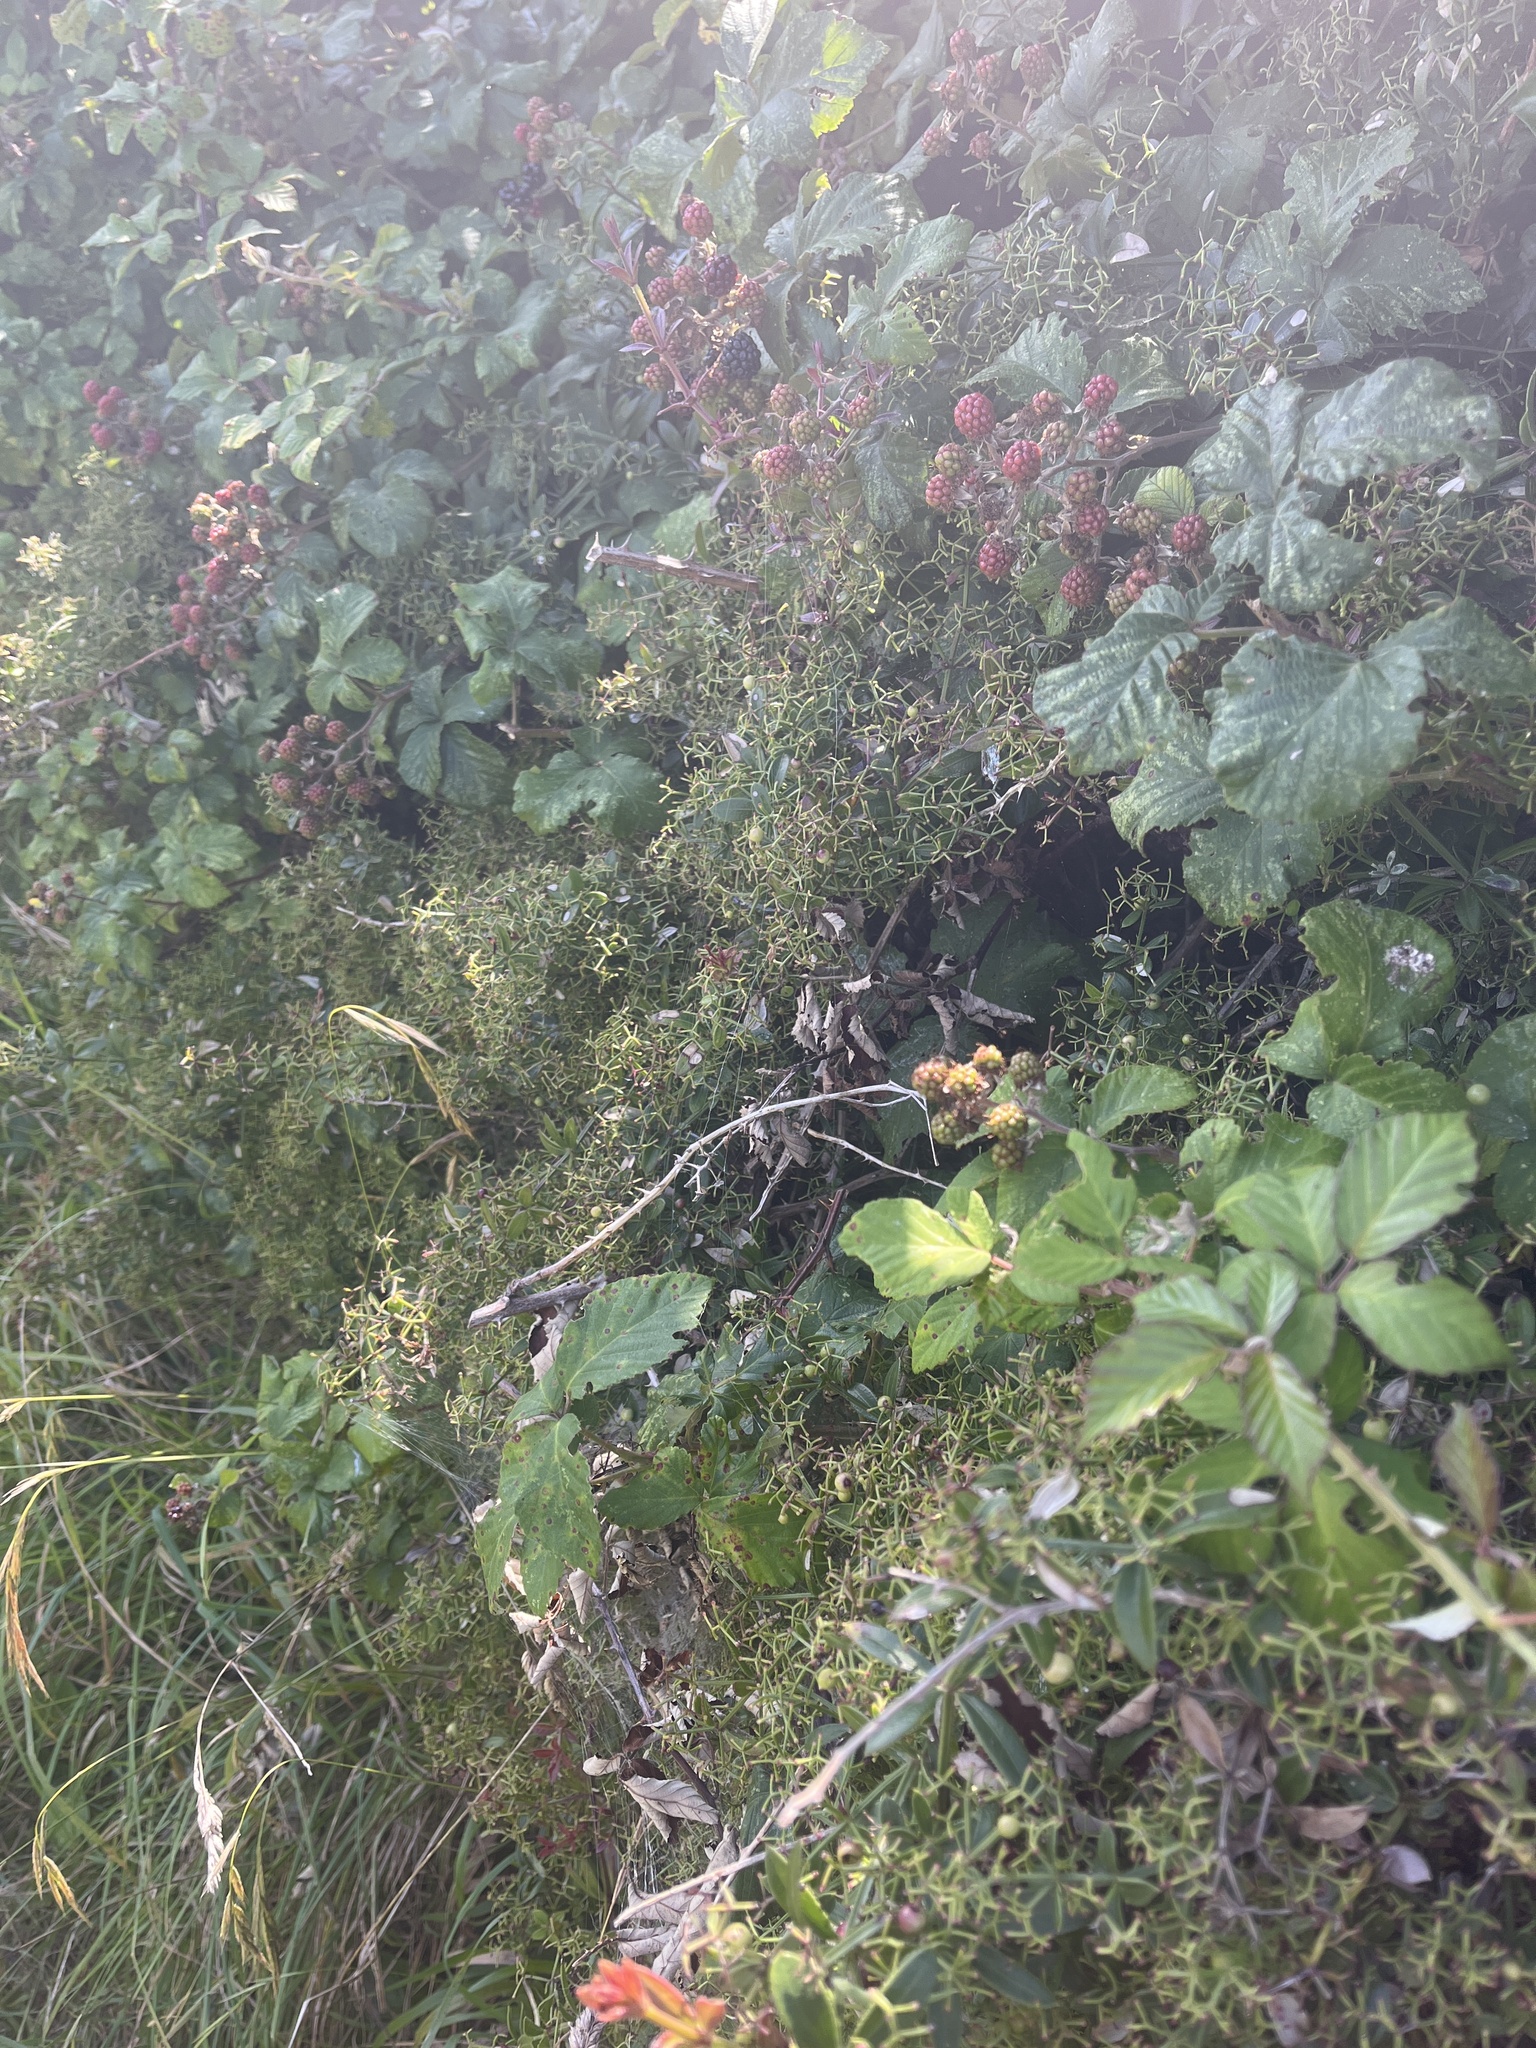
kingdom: Plantae
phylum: Tracheophyta
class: Magnoliopsida
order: Gentianales
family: Rubiaceae
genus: Rubia
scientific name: Rubia peregrina
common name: Wild madder
